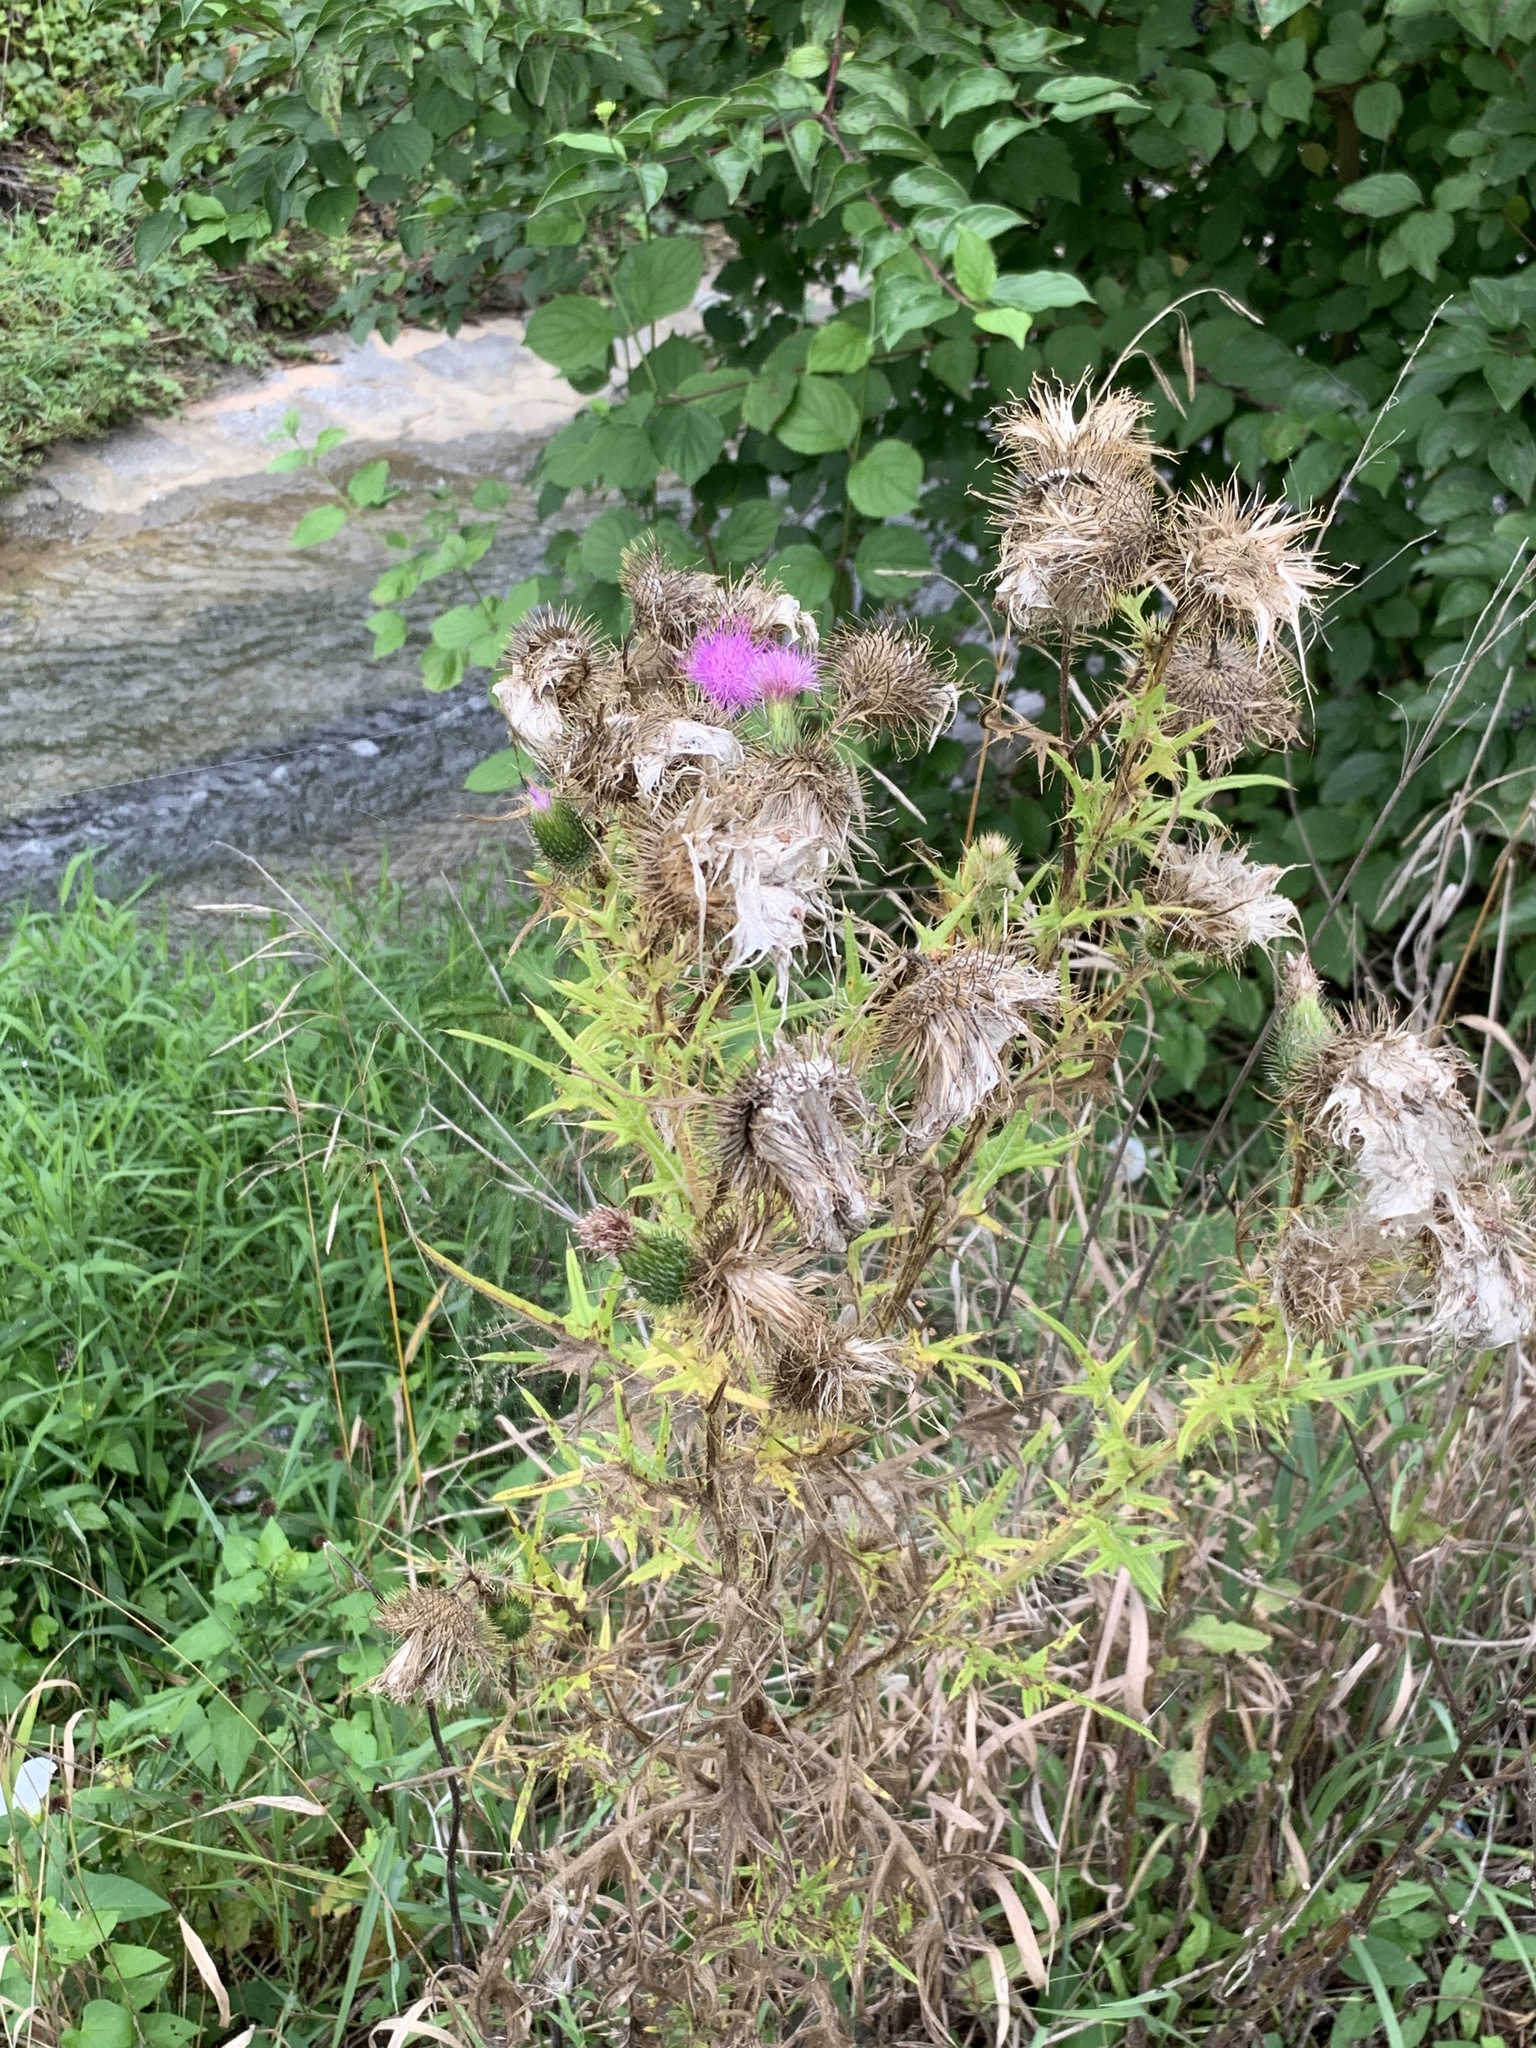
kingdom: Plantae
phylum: Tracheophyta
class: Magnoliopsida
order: Asterales
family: Asteraceae
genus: Cirsium
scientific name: Cirsium vulgare
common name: Bull thistle
